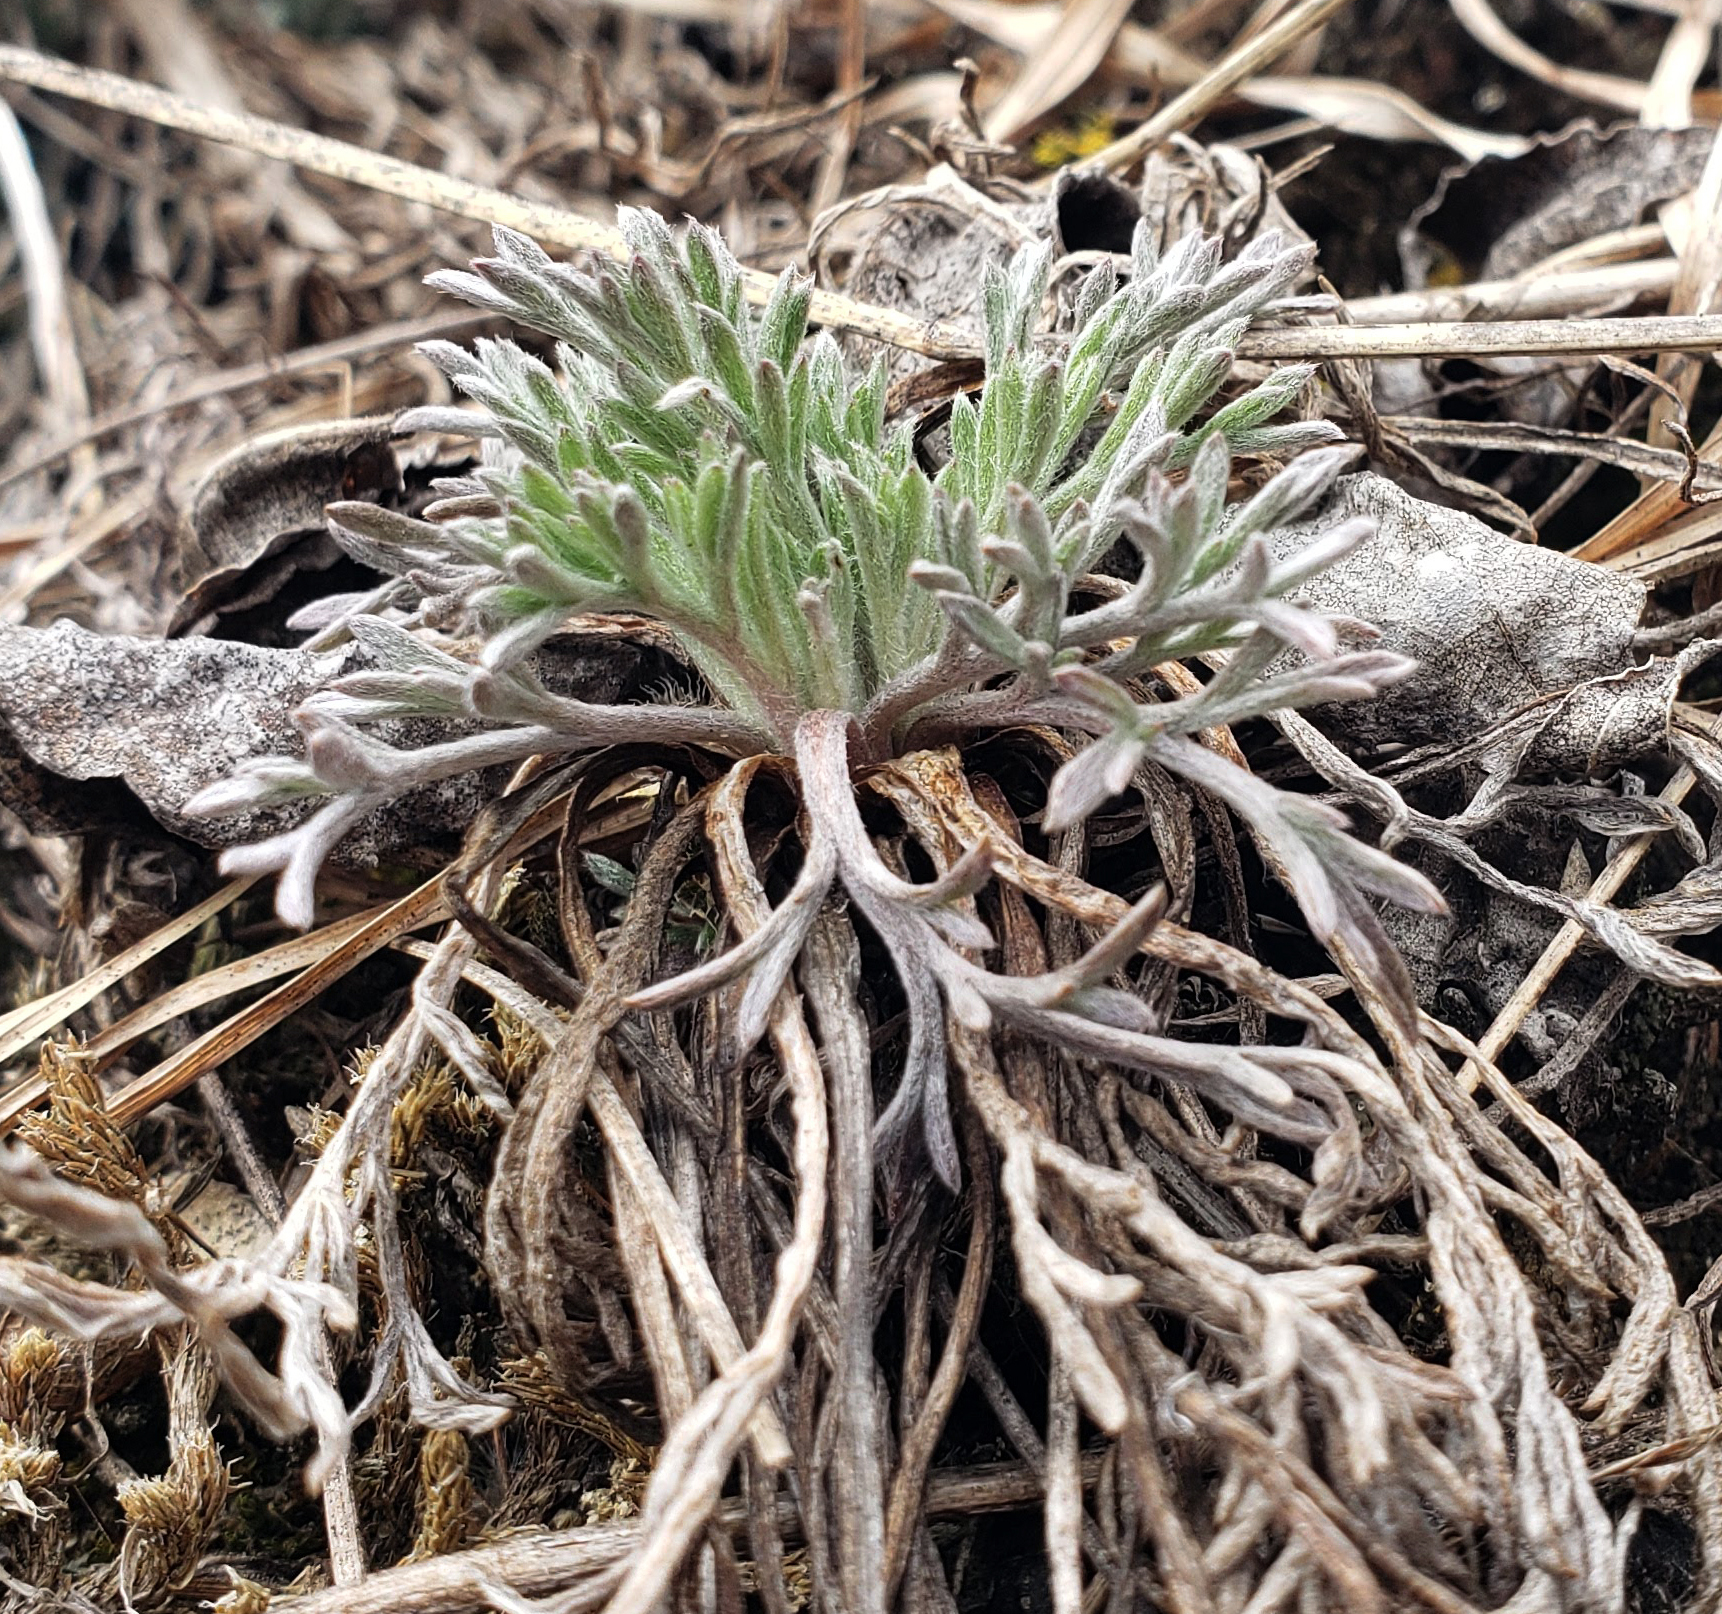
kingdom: Plantae
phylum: Tracheophyta
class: Magnoliopsida
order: Asterales
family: Asteraceae
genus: Artemisia
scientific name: Artemisia campestris
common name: Field wormwood
